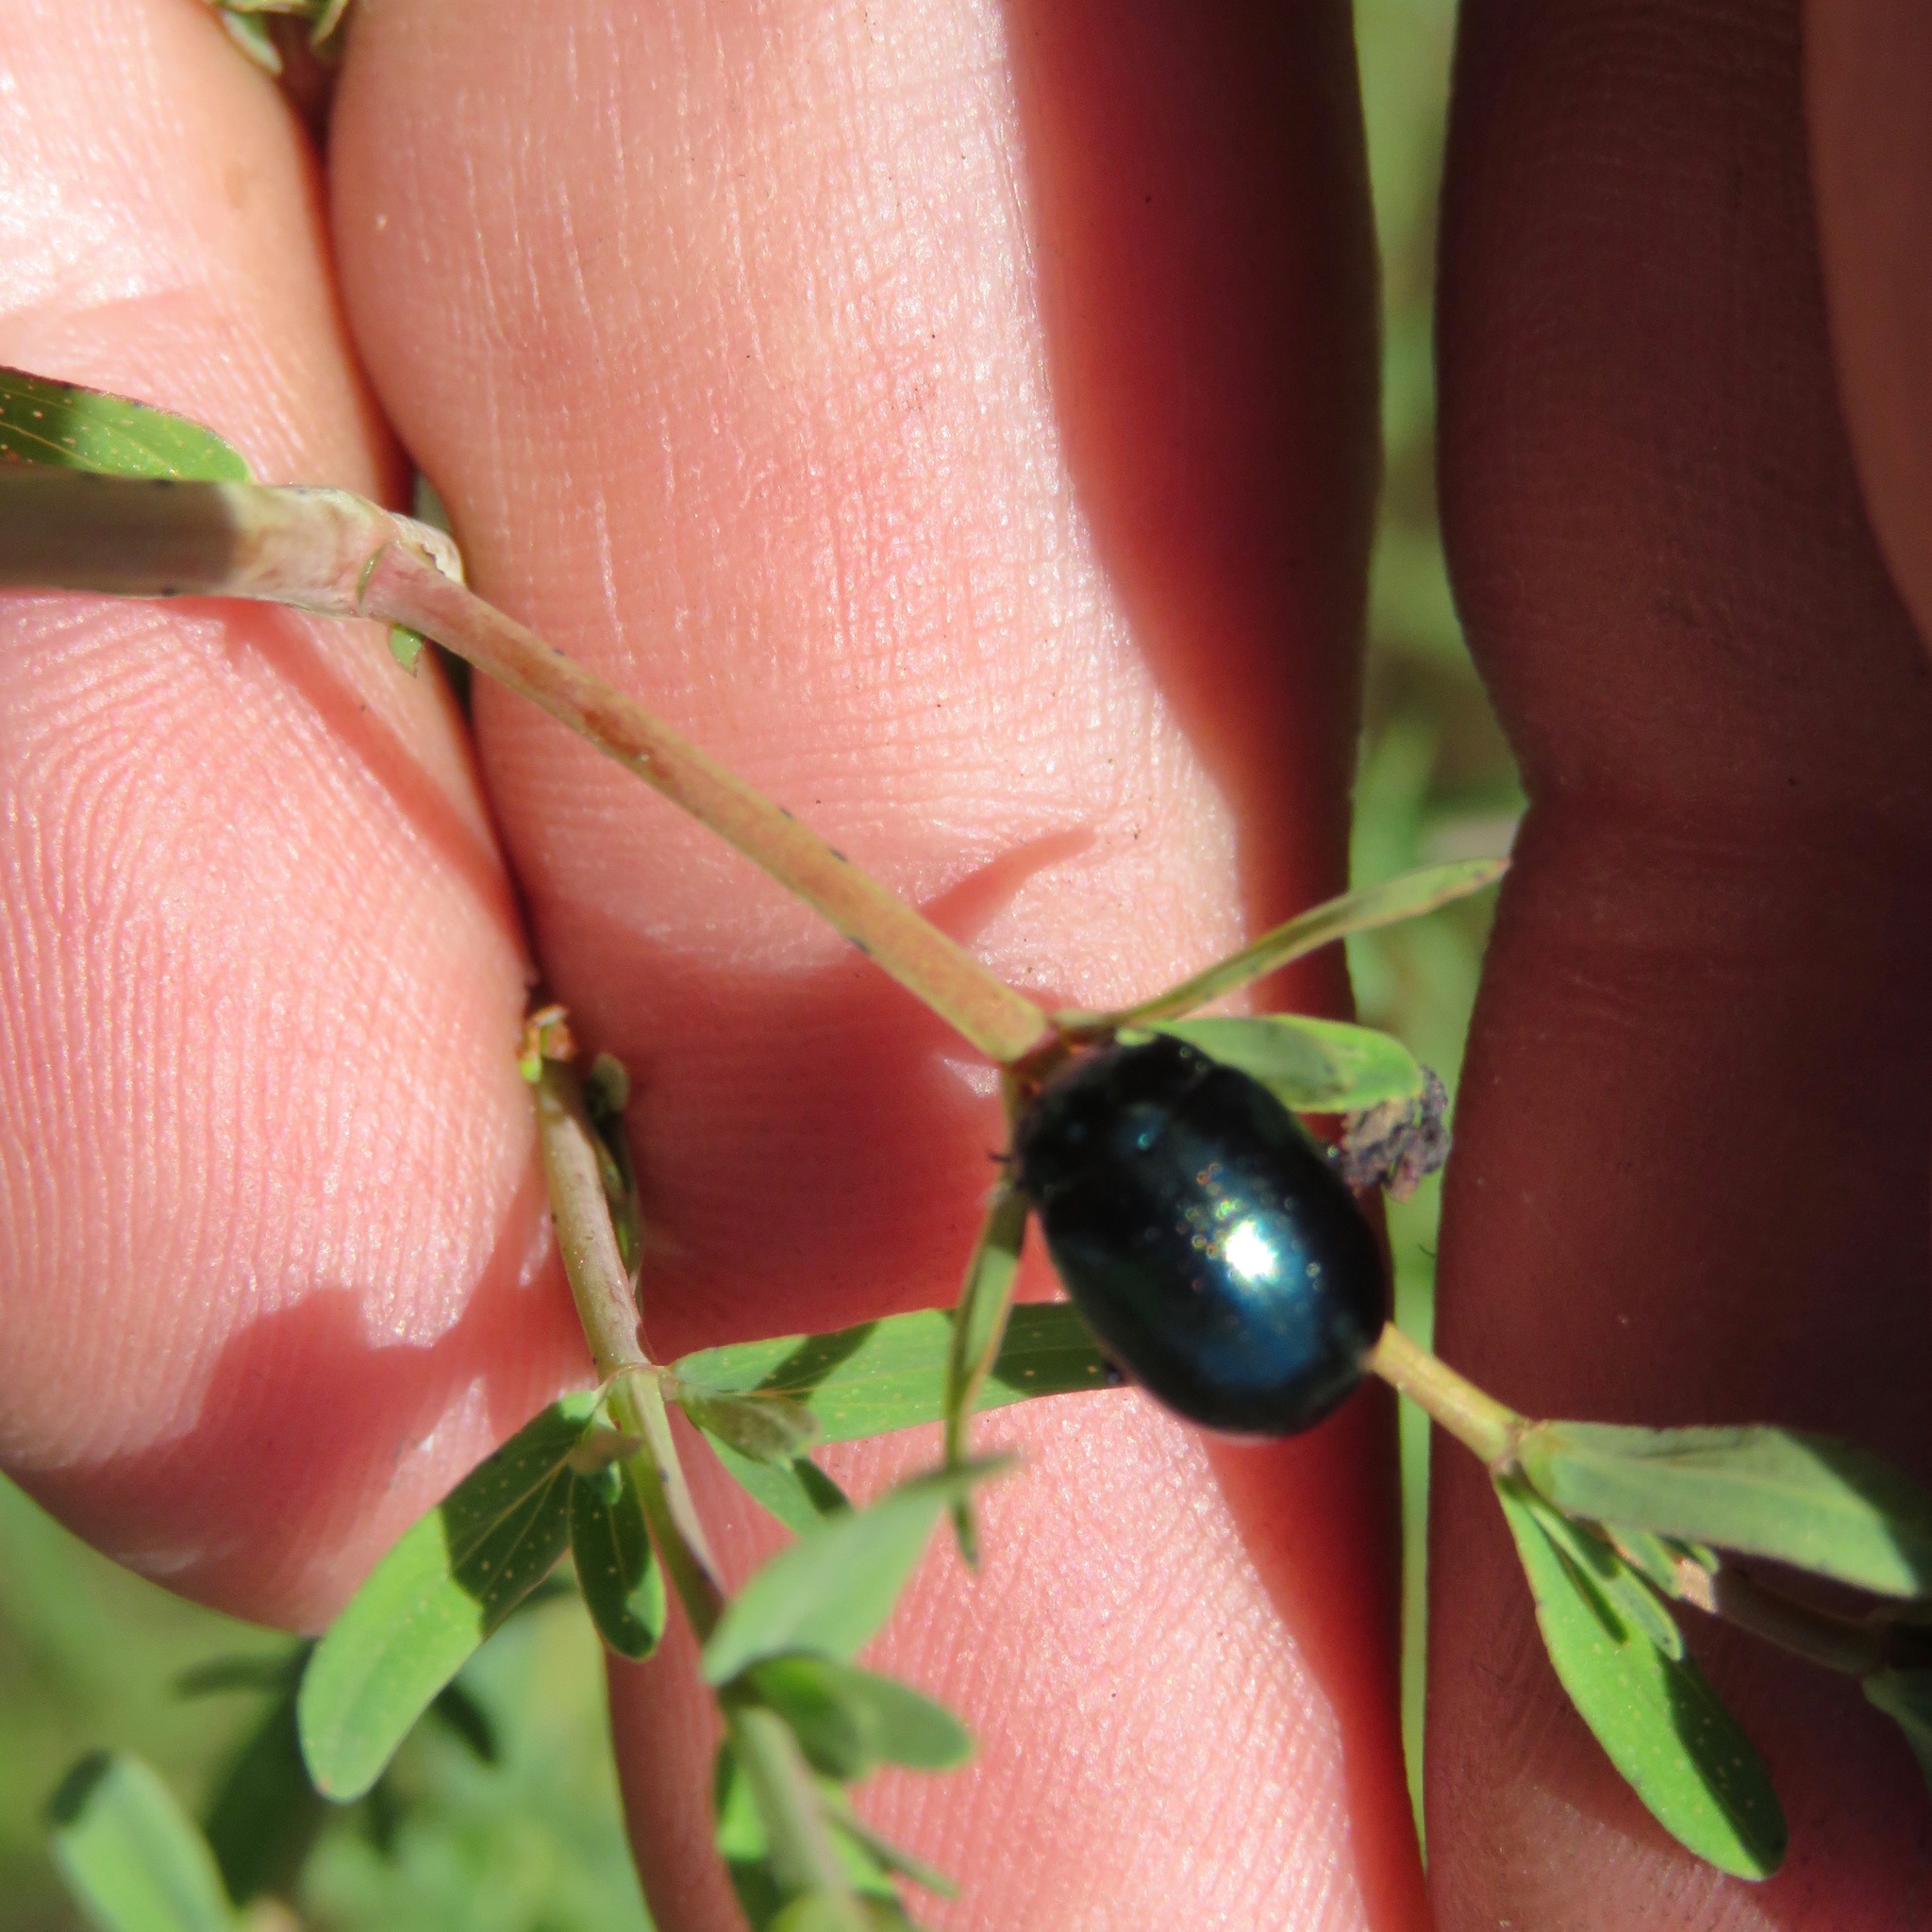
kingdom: Animalia
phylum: Arthropoda
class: Insecta
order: Coleoptera
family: Chrysomelidae
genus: Chrysolina
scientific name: Chrysolina hyperici
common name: St. johnswort beetle
